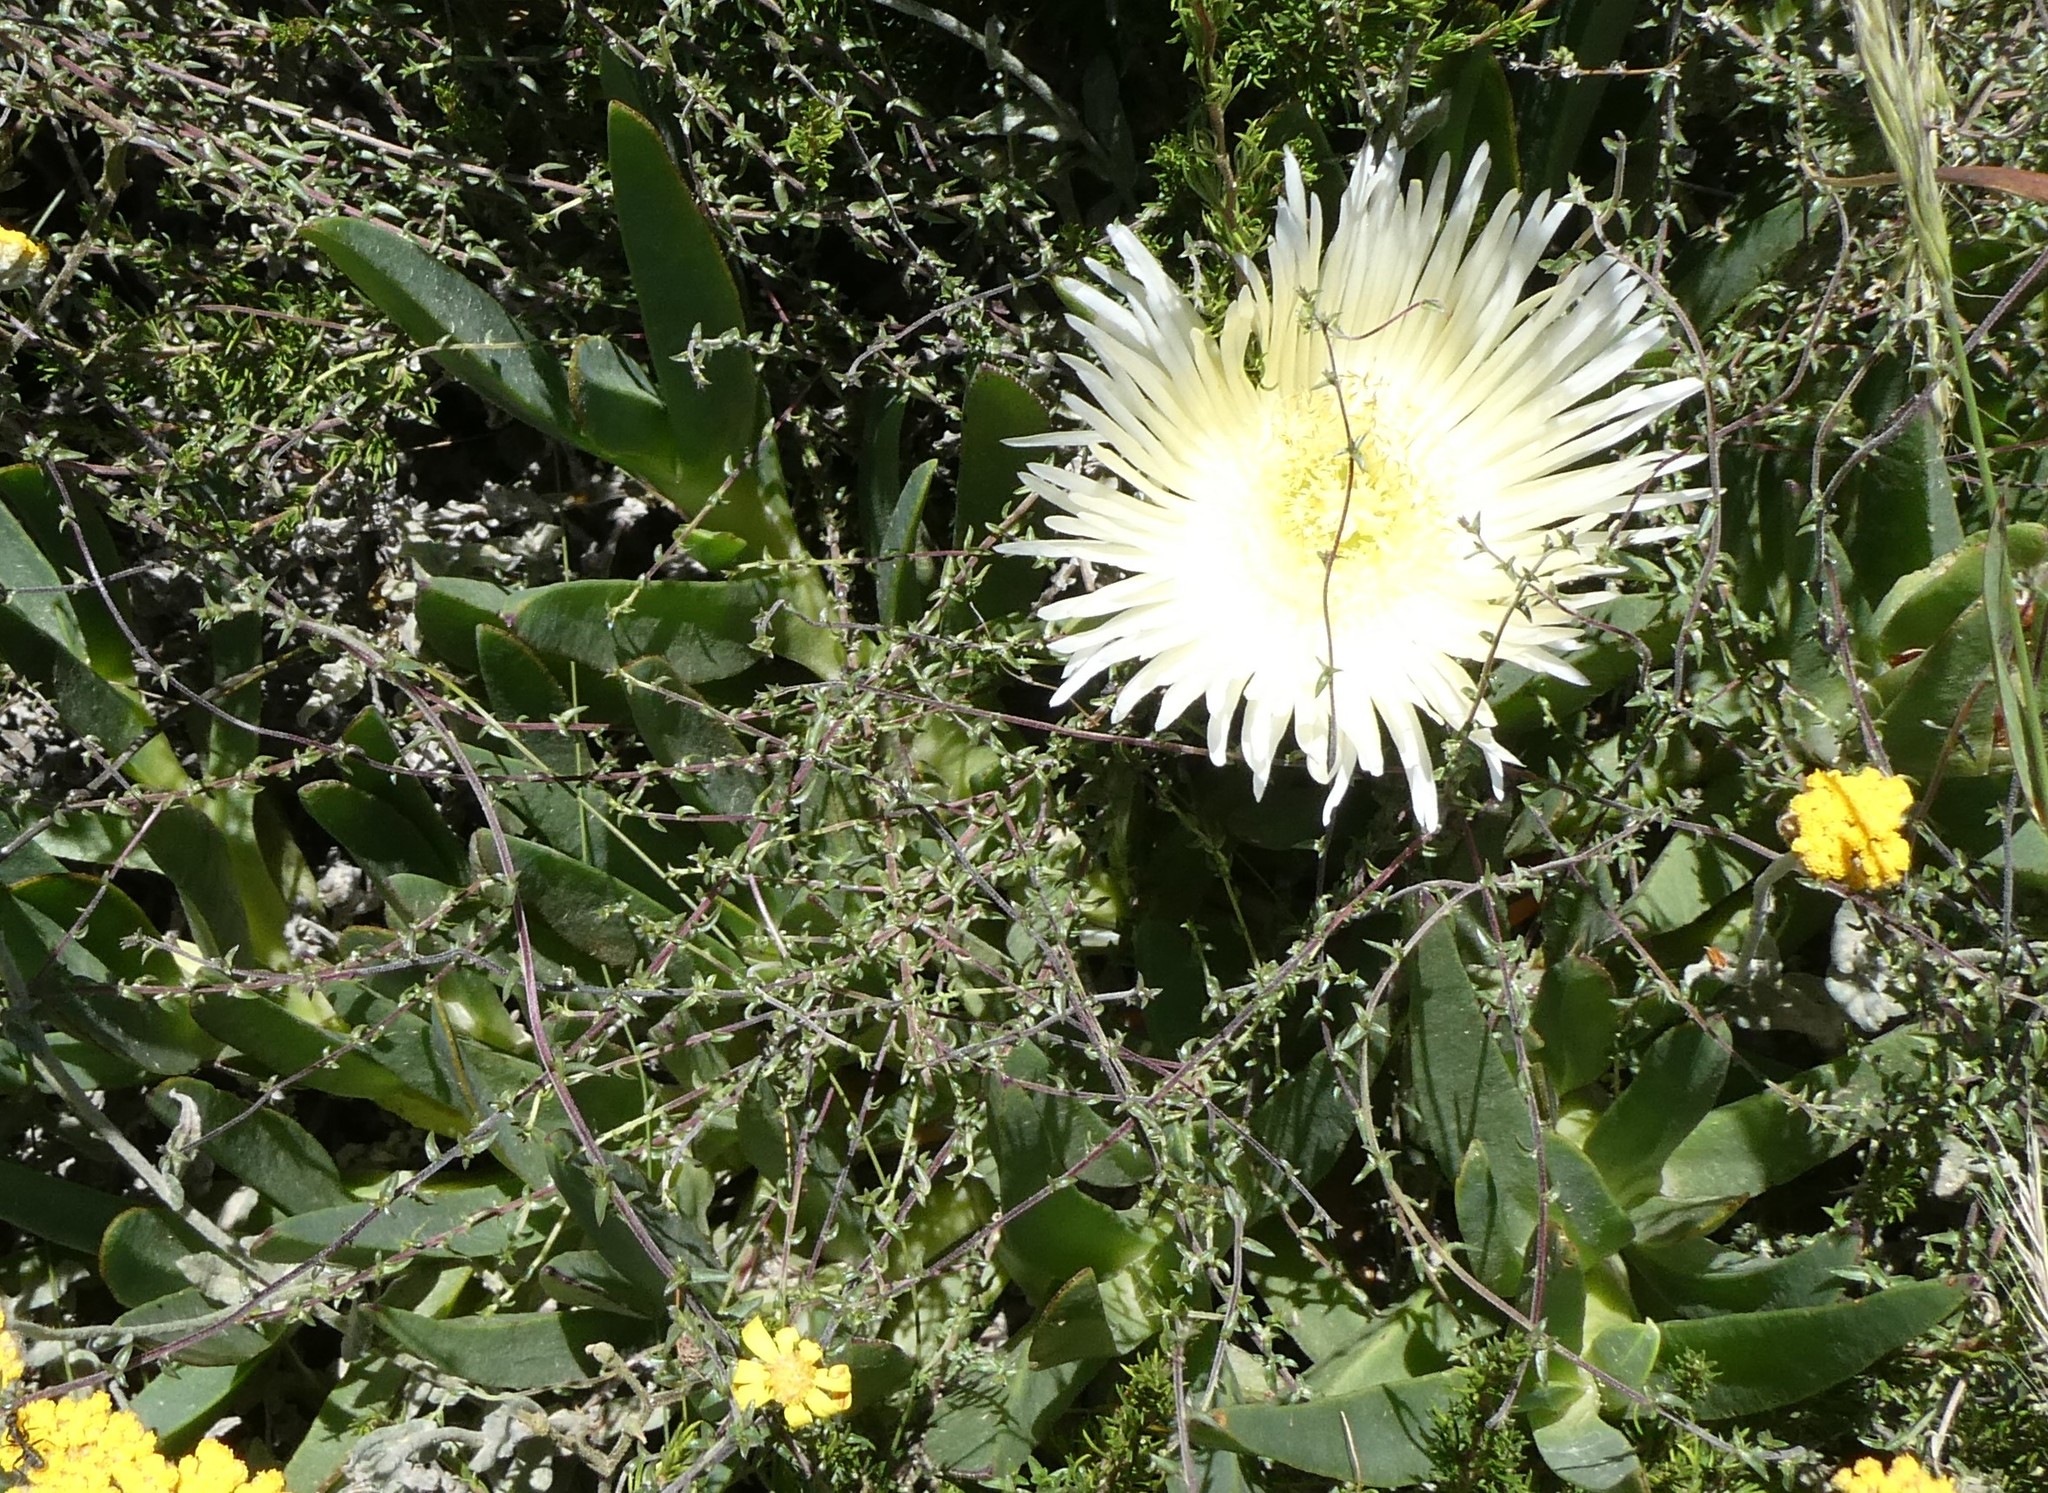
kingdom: Plantae
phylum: Tracheophyta
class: Magnoliopsida
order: Caryophyllales
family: Aizoaceae
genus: Carpobrotus
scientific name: Carpobrotus edulis
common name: Hottentot-fig
